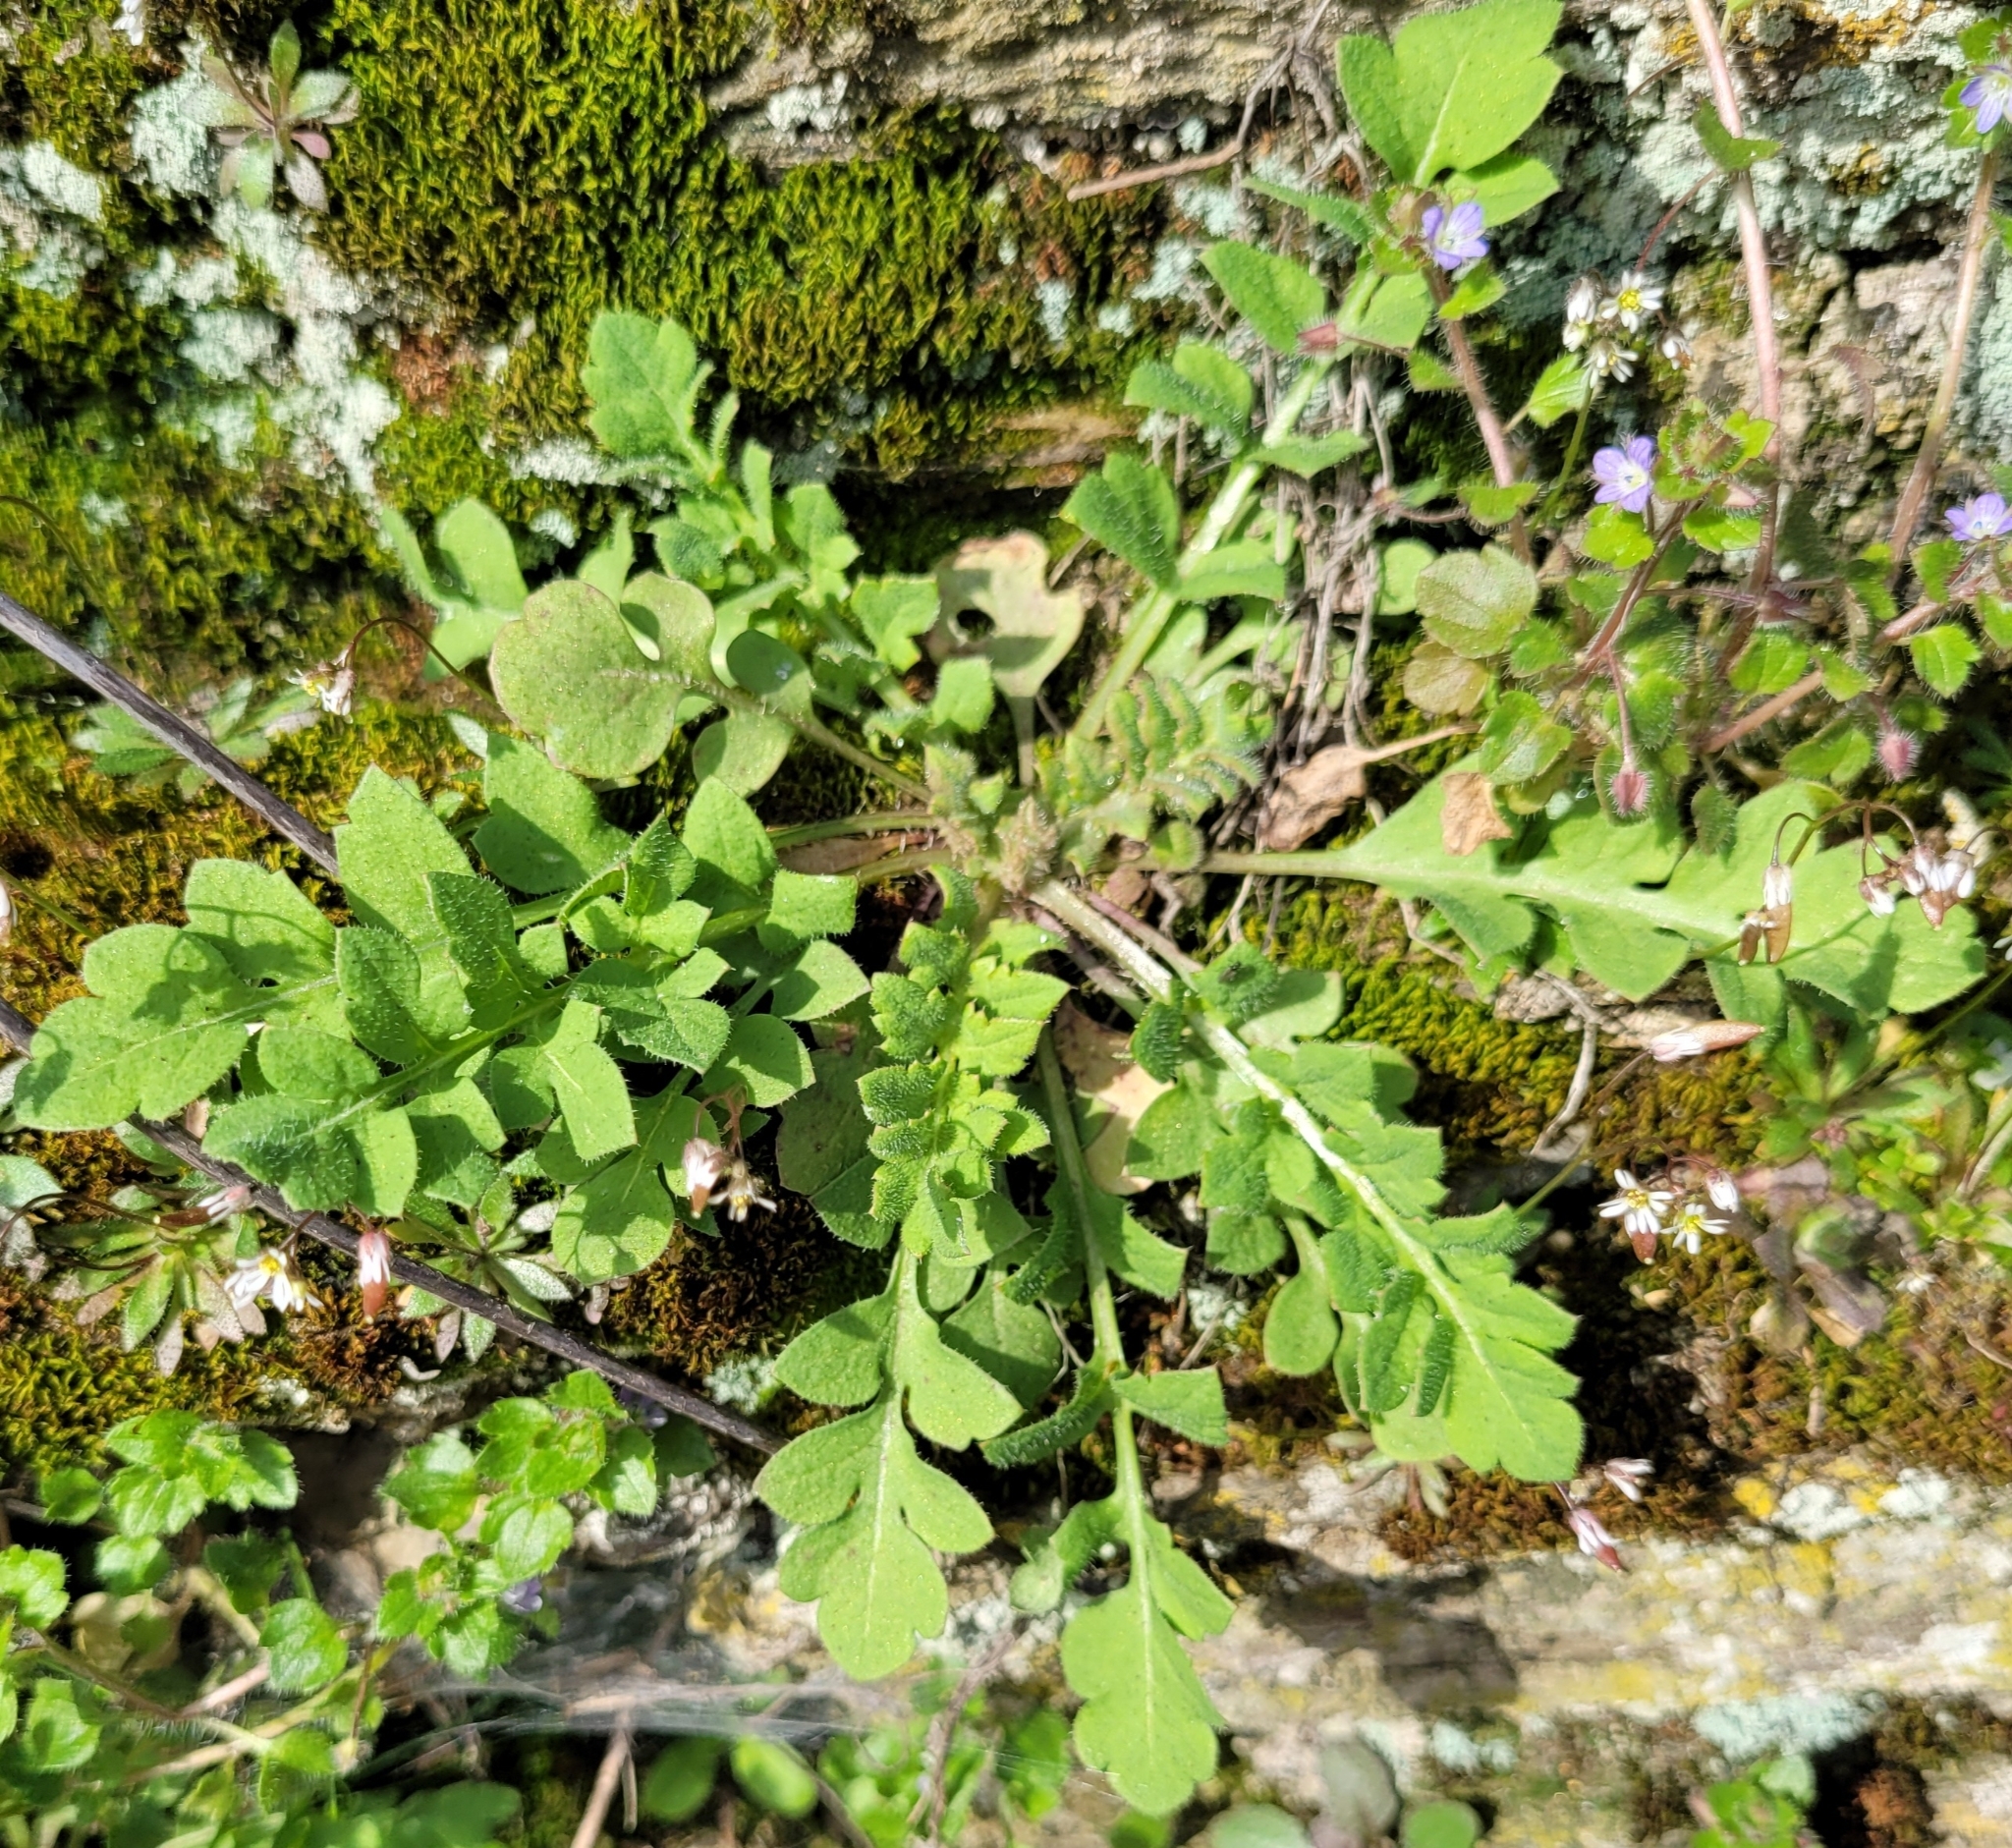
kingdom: Plantae
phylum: Tracheophyta
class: Magnoliopsida
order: Brassicales
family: Brassicaceae
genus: Capsella
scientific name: Capsella bursa-pastoris
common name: Shepherd's purse
